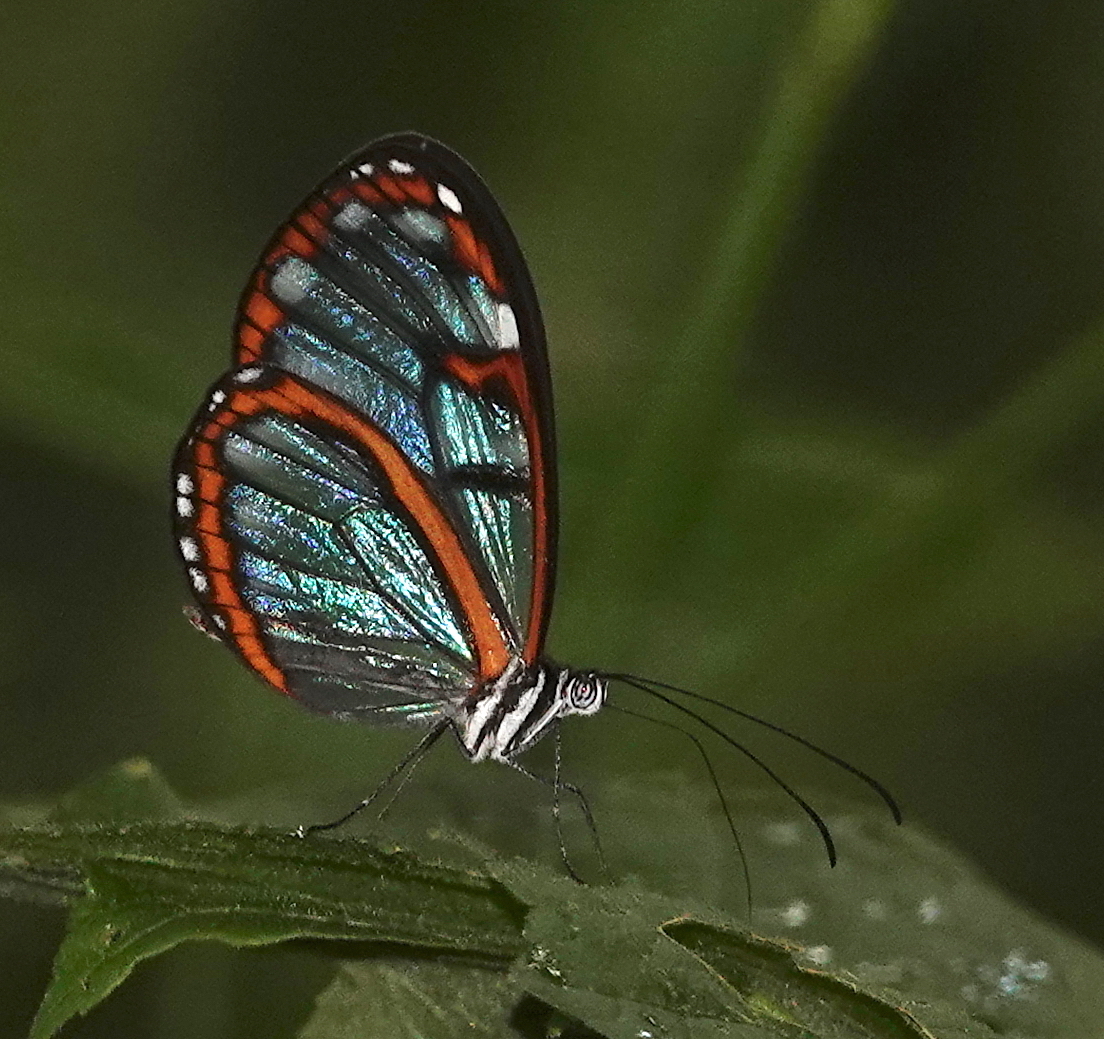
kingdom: Animalia
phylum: Arthropoda
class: Insecta
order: Lepidoptera
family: Nymphalidae
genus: Oleria
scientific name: Oleria makrena
